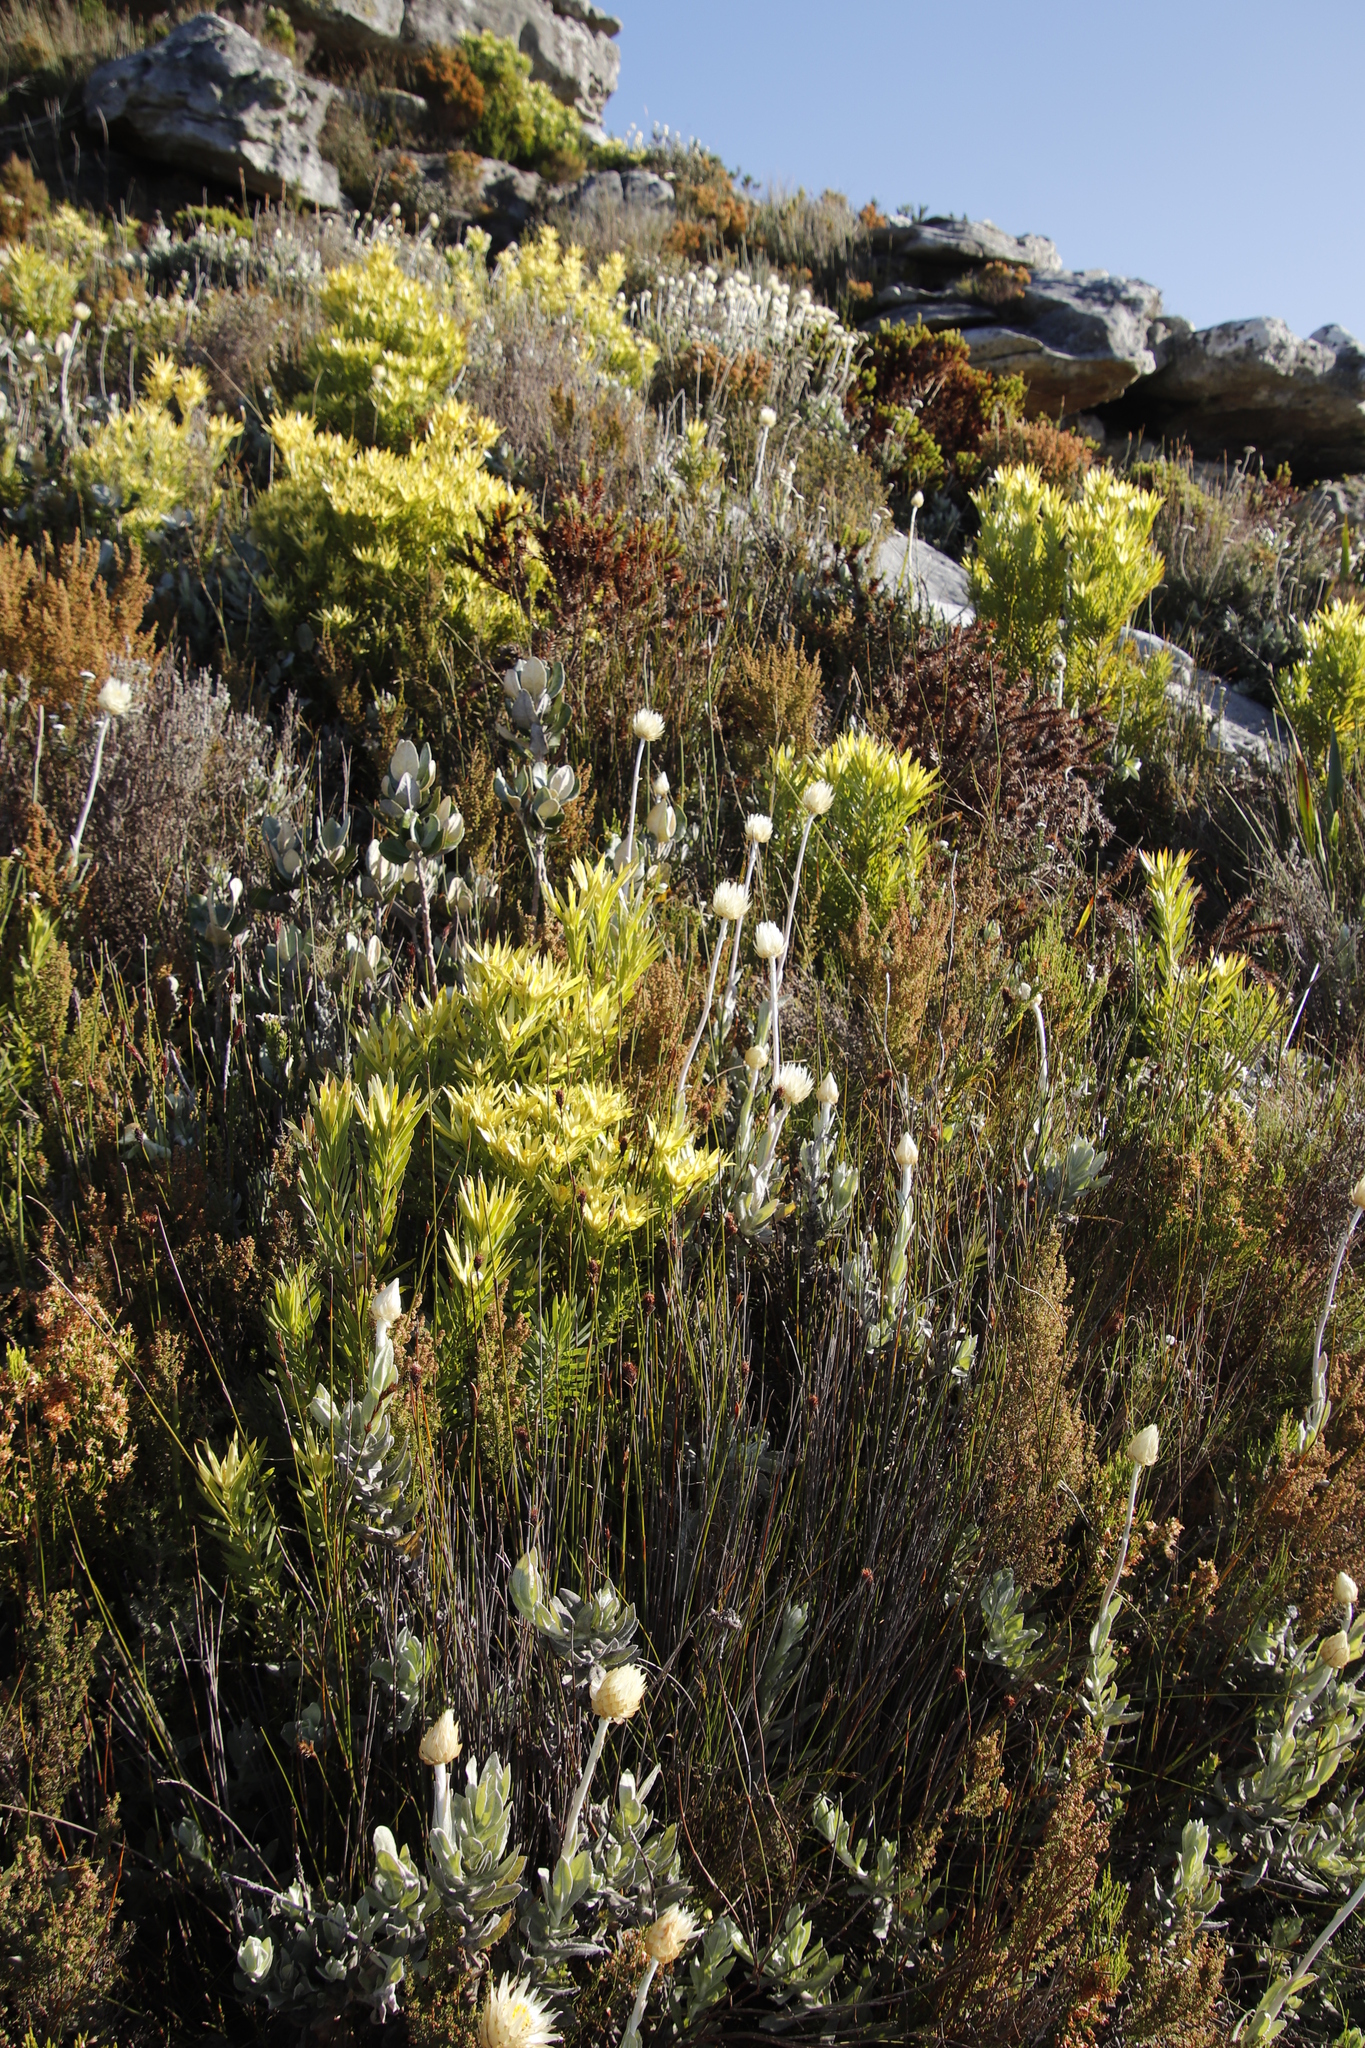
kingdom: Plantae
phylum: Tracheophyta
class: Magnoliopsida
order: Asterales
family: Asteraceae
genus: Syncarpha
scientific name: Syncarpha speciosissima
